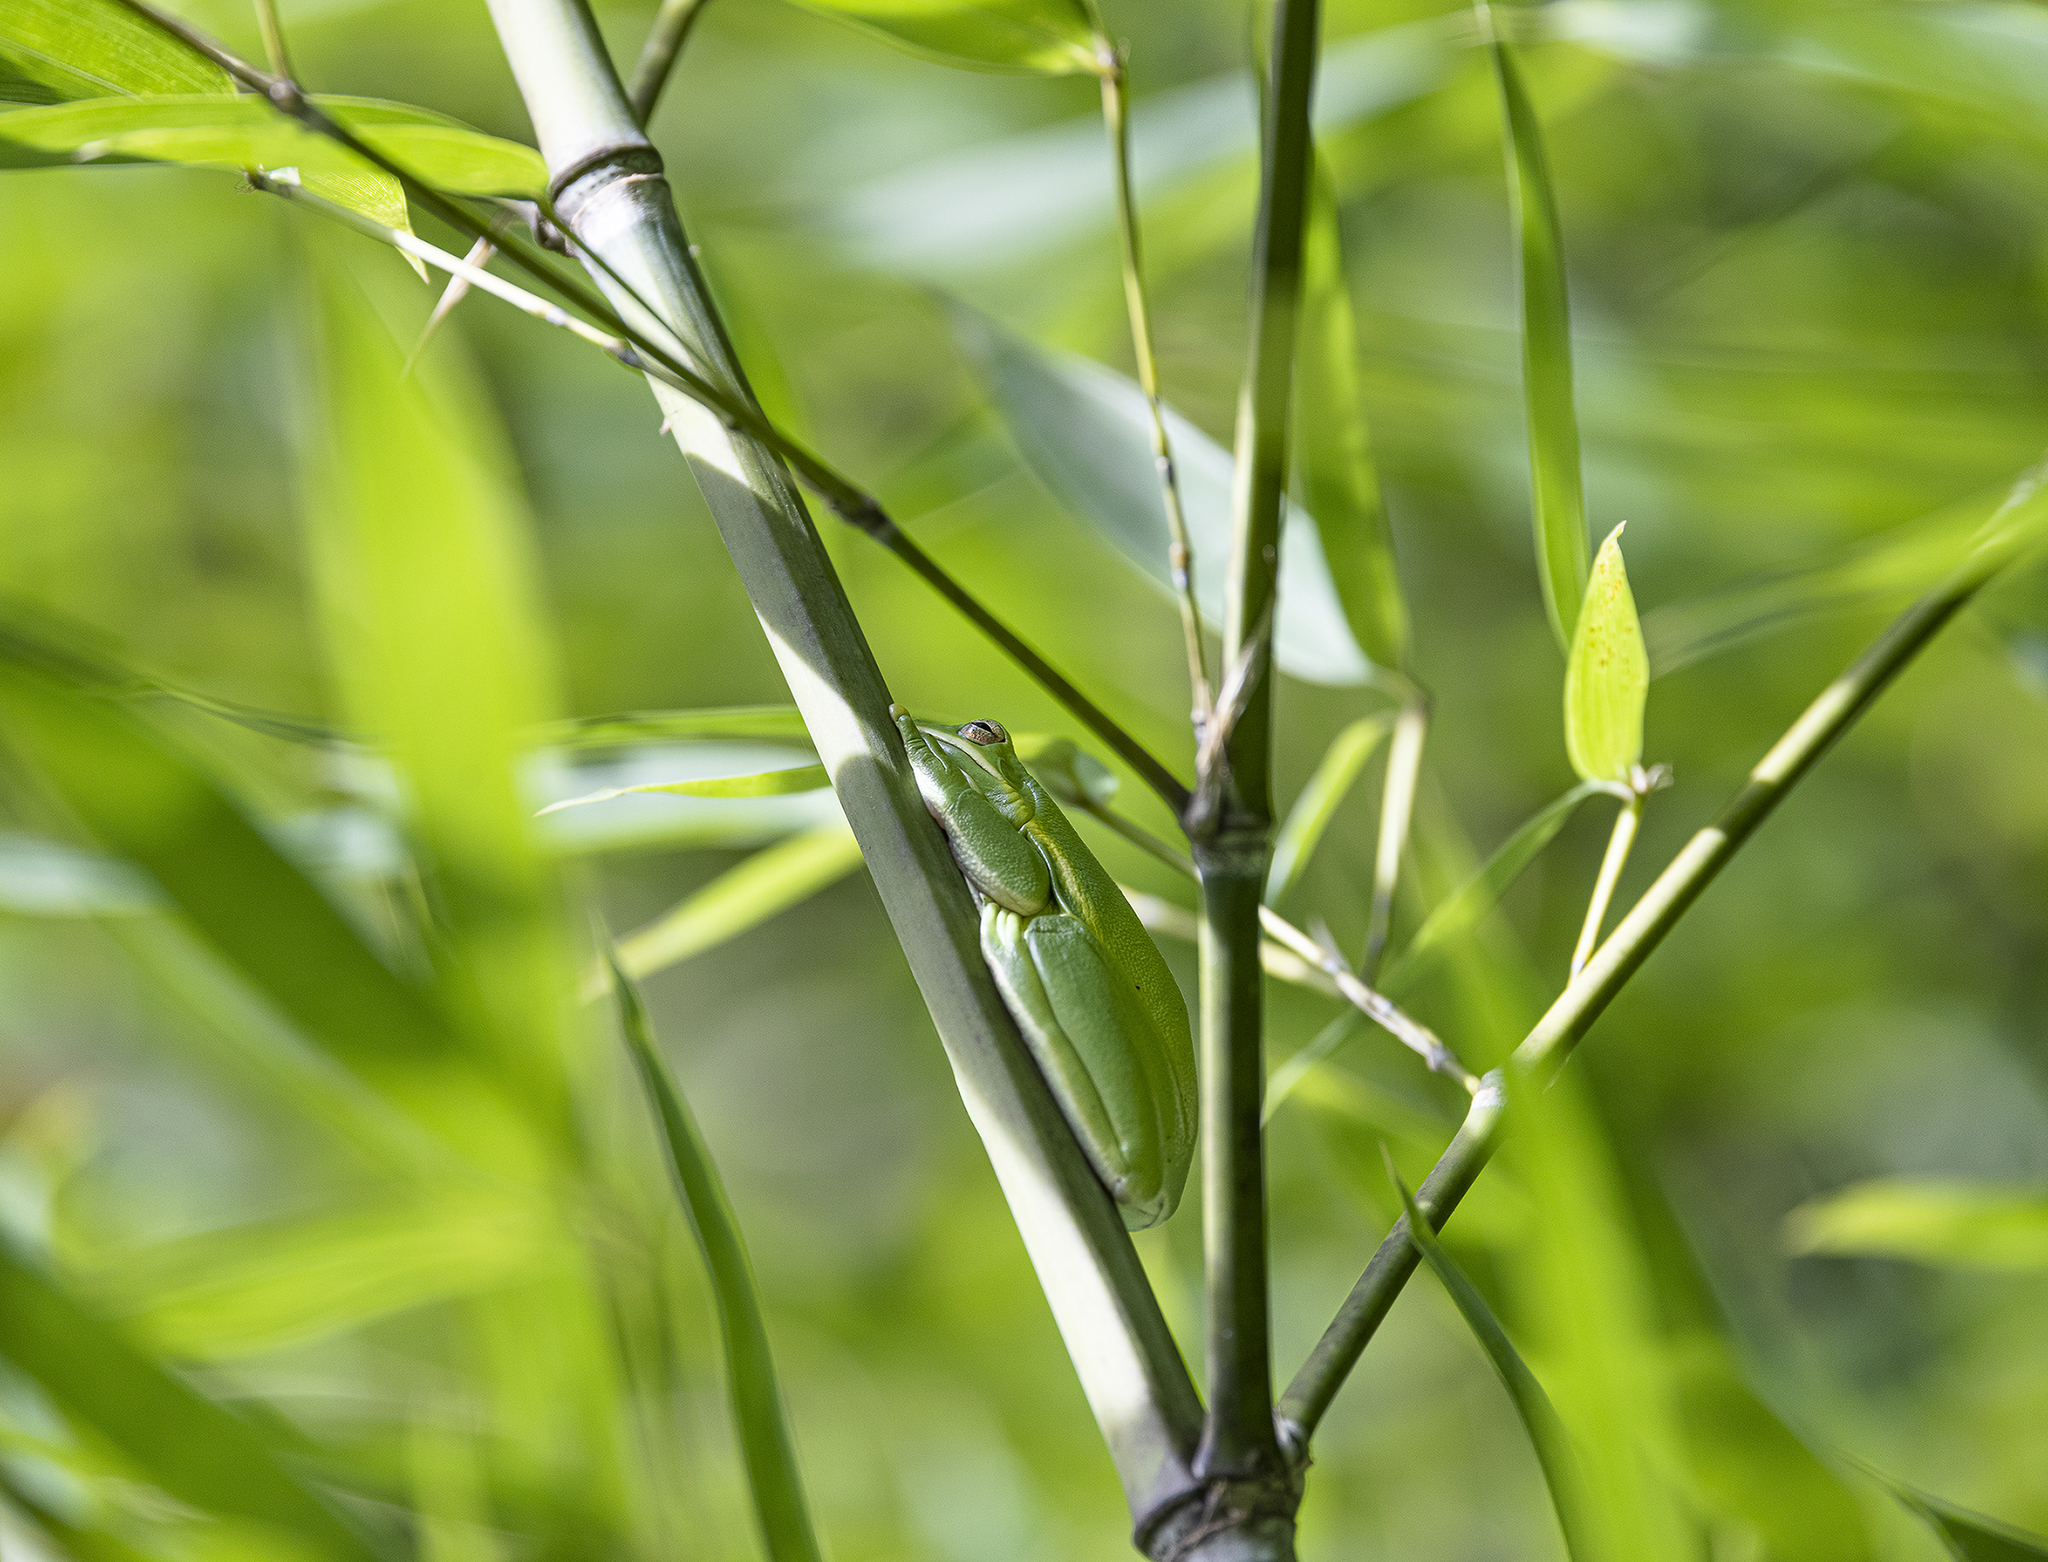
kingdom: Animalia
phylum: Chordata
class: Amphibia
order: Anura
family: Hylidae
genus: Dryophytes
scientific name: Dryophytes cinereus
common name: Green treefrog
